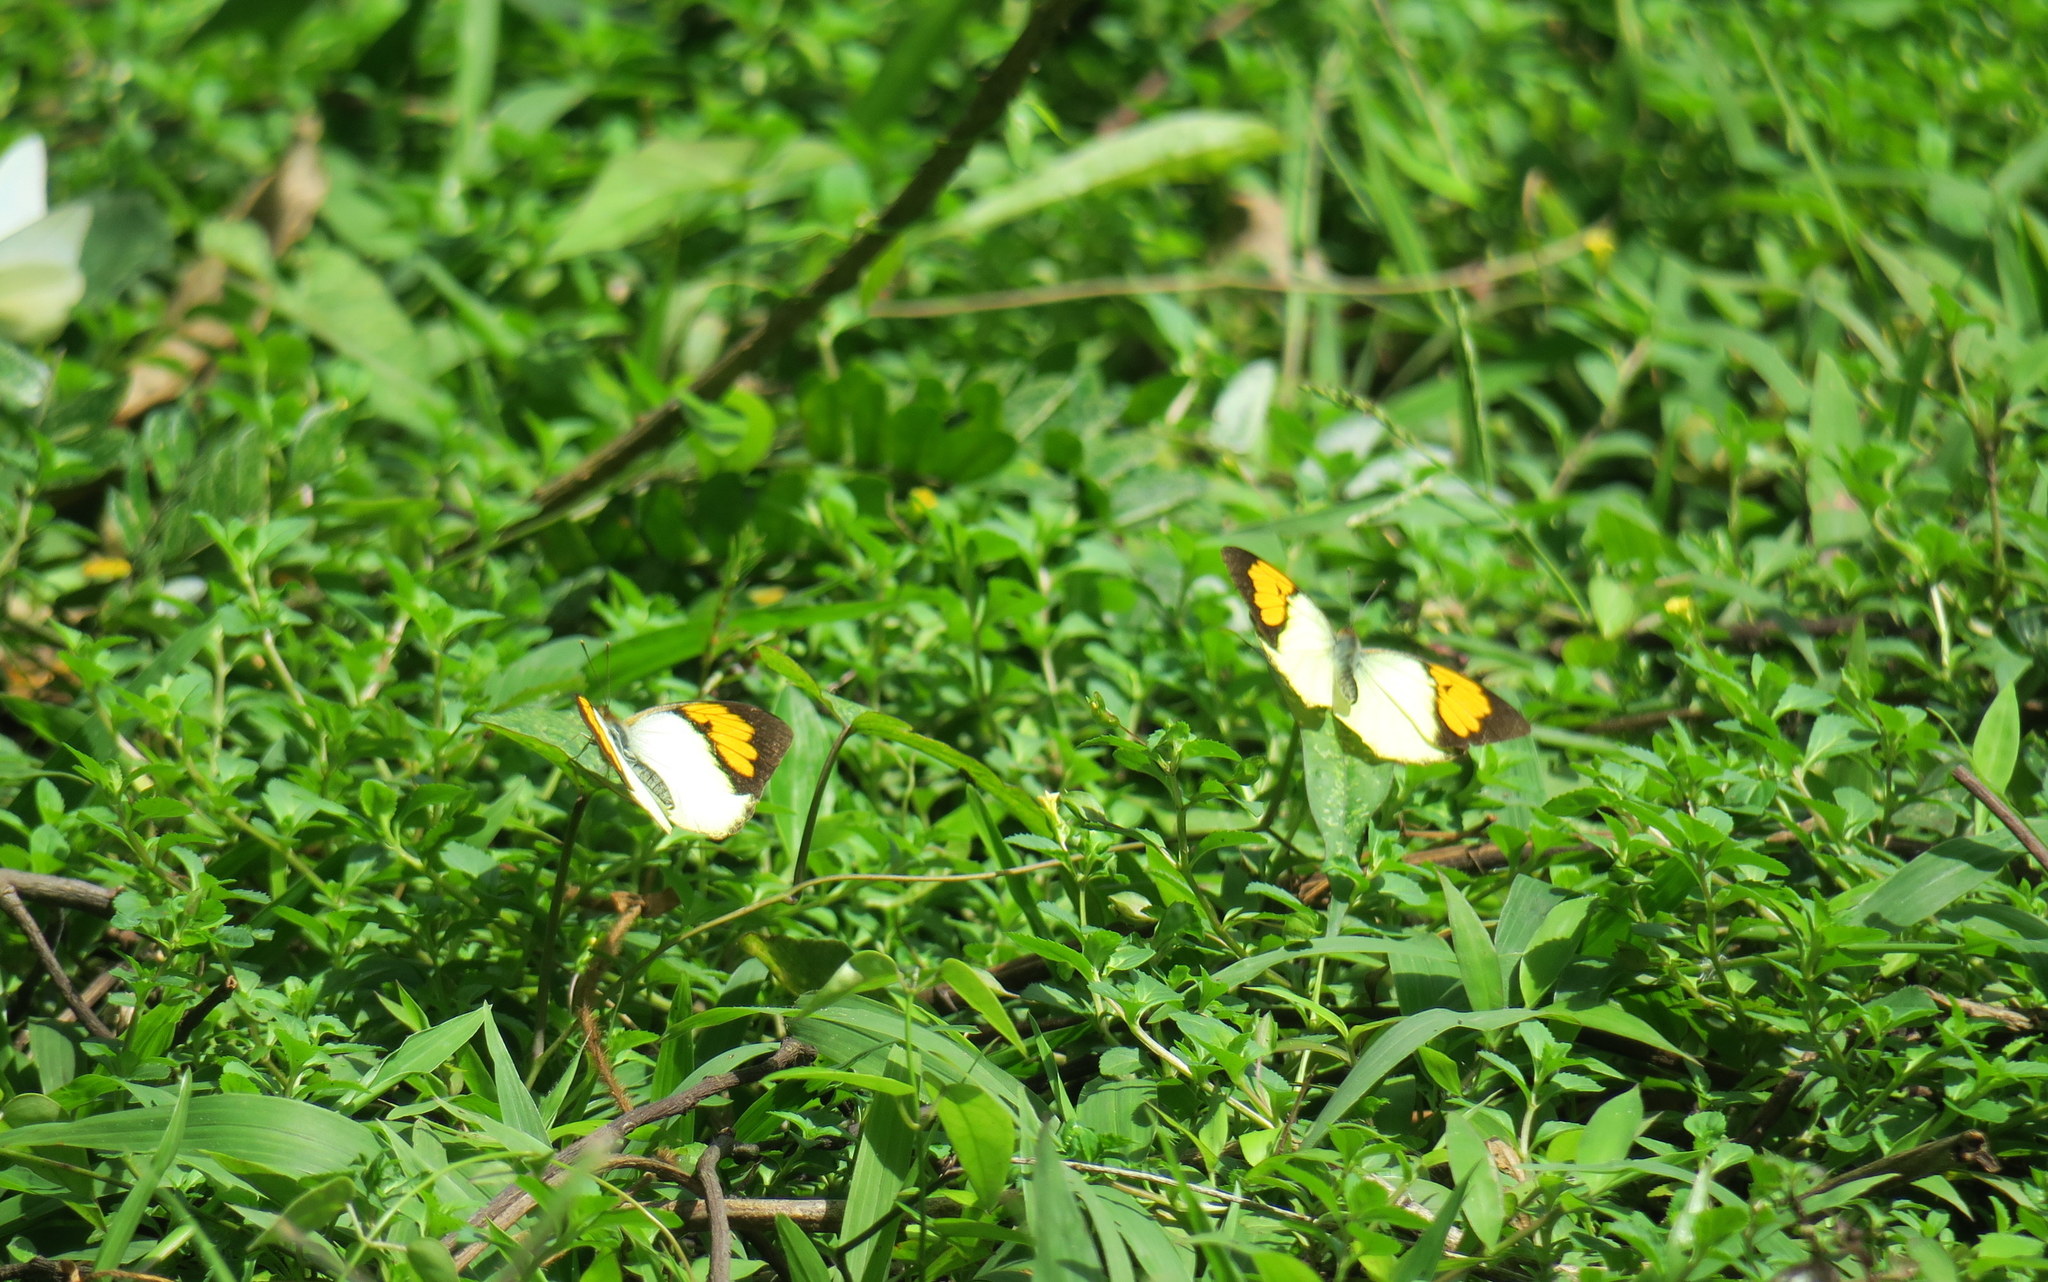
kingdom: Animalia
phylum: Arthropoda
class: Insecta
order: Lepidoptera
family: Pieridae
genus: Ixias
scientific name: Ixias pyrene
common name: Yellow orange tip
